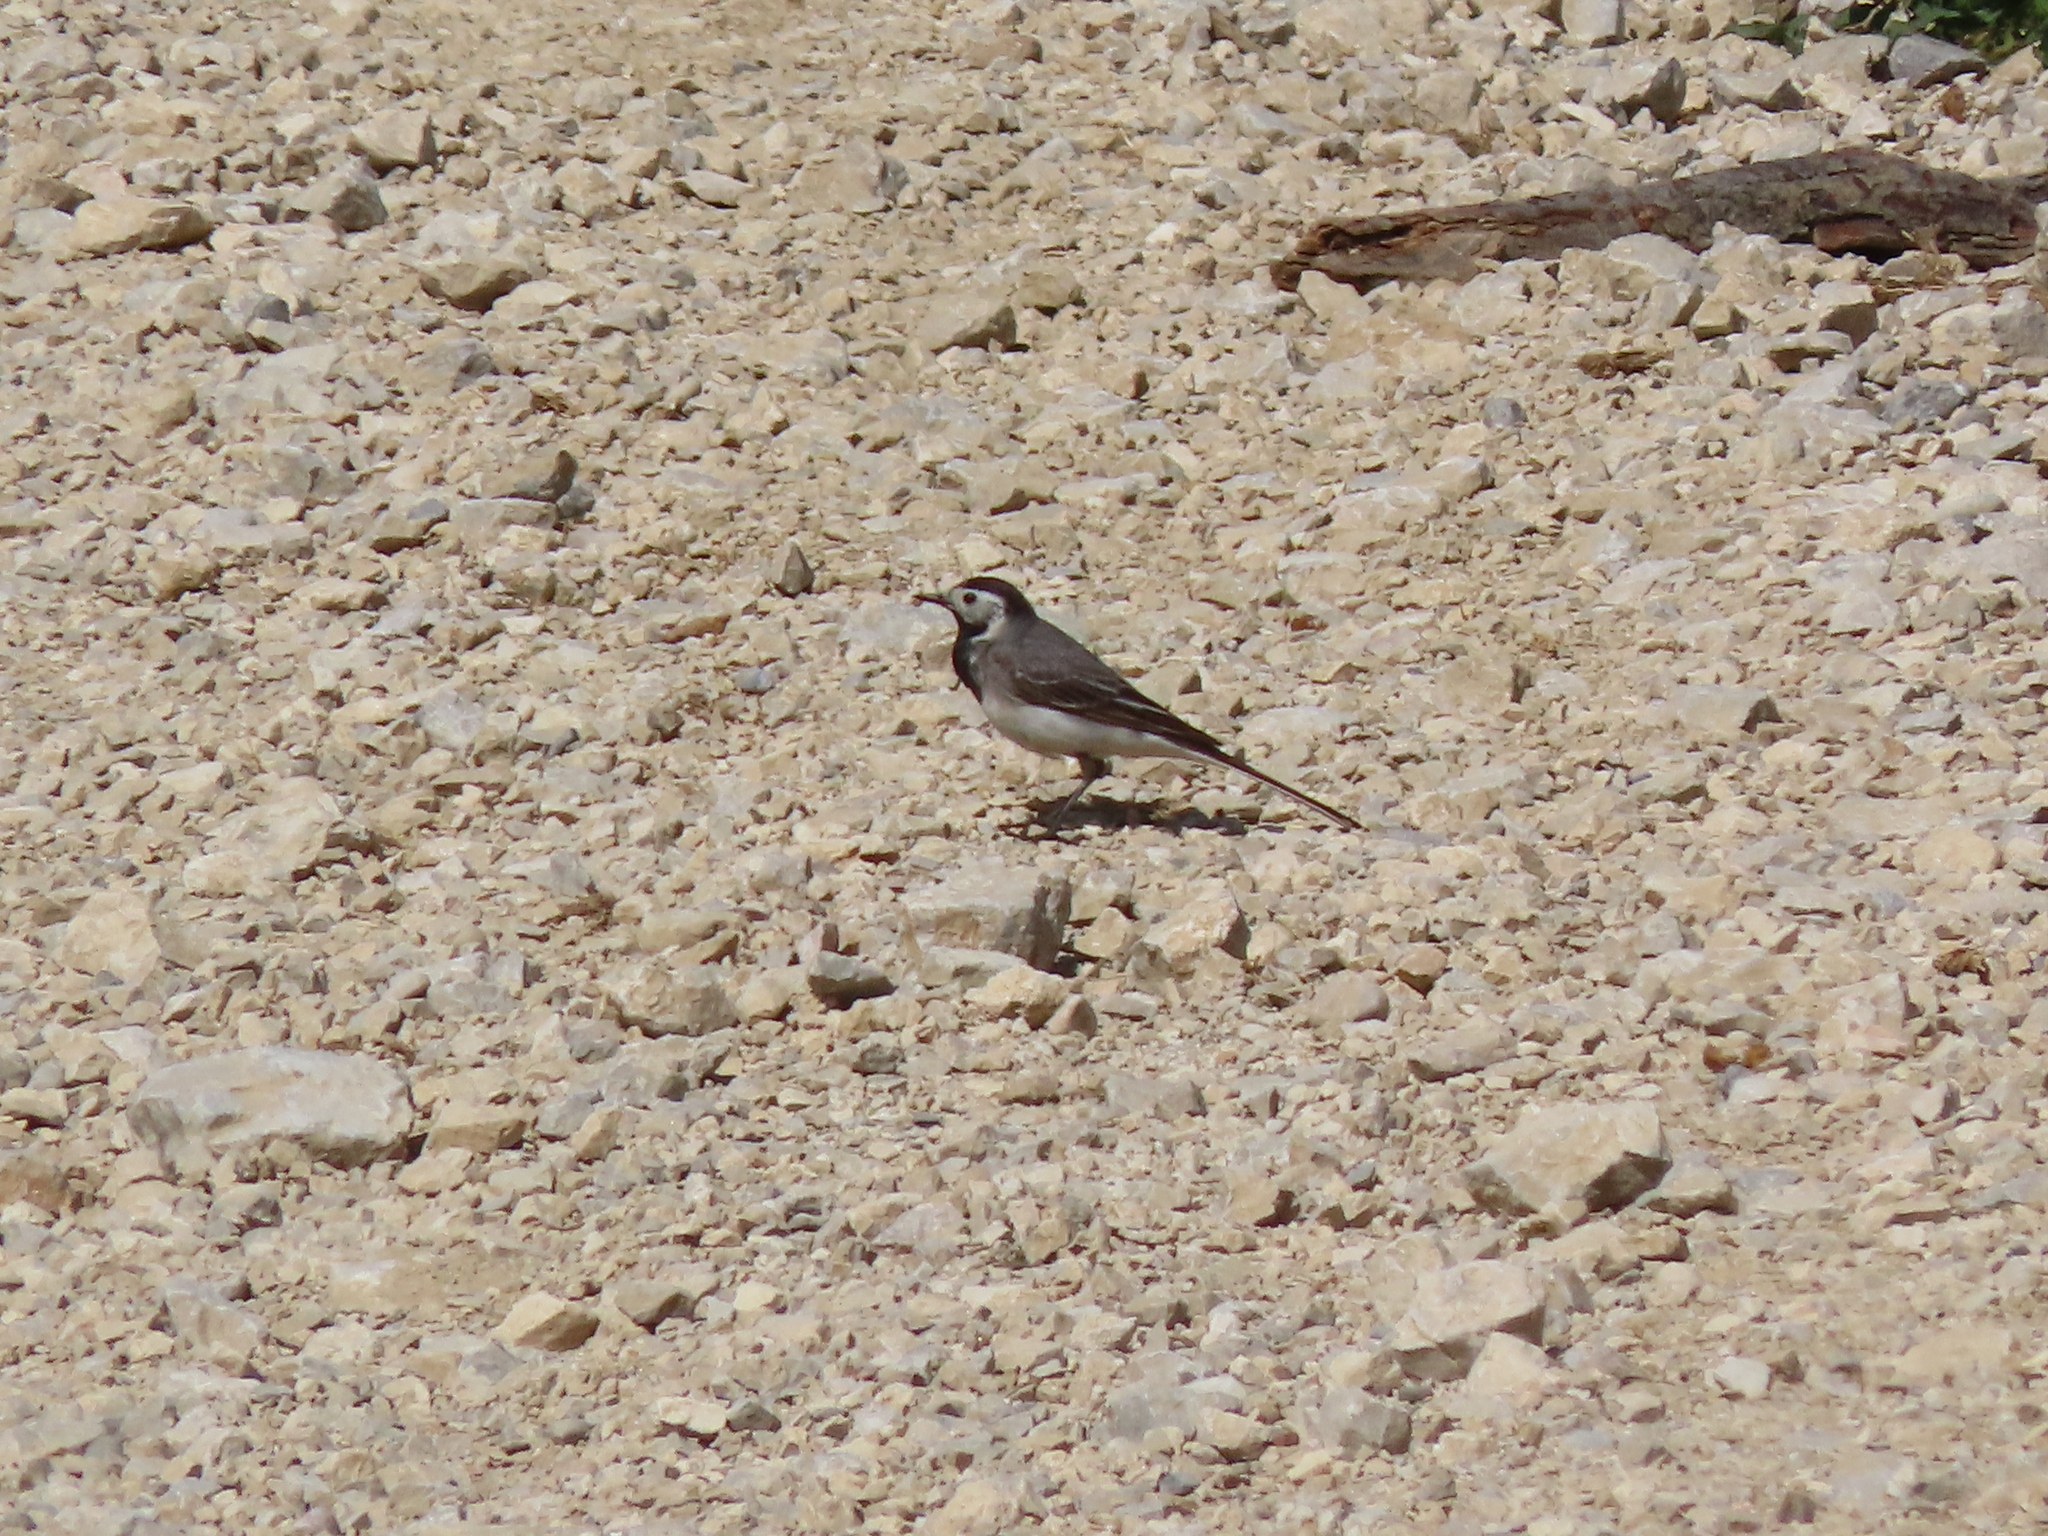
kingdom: Animalia
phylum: Chordata
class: Aves
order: Passeriformes
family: Motacillidae
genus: Motacilla
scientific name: Motacilla alba
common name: White wagtail
